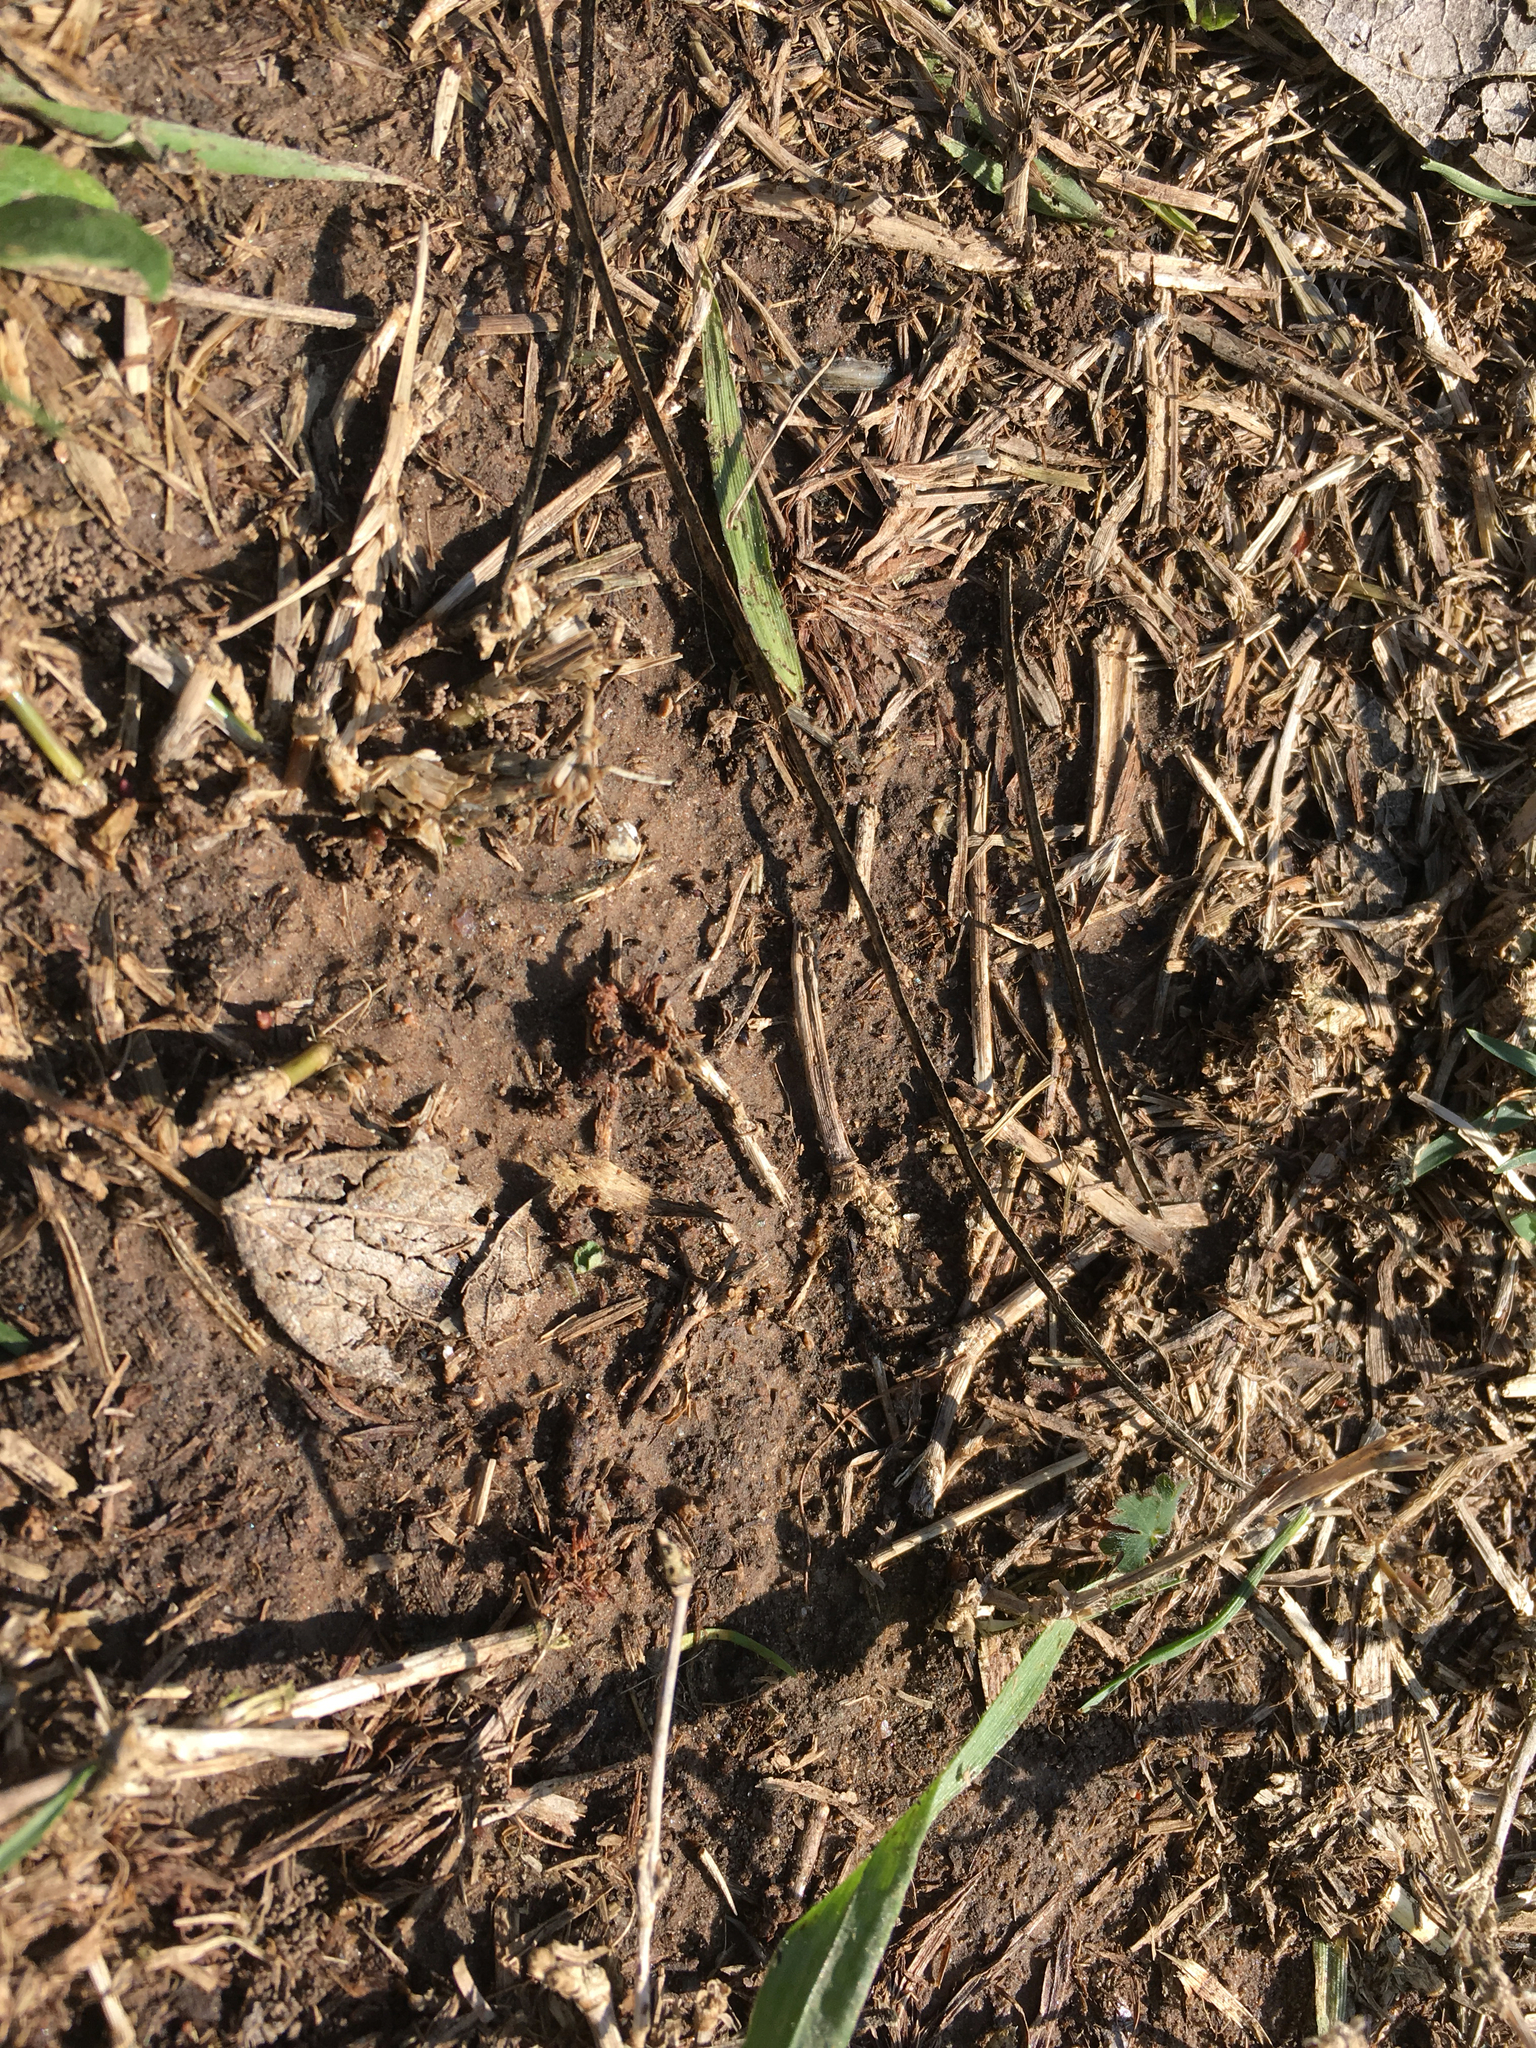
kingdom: Animalia
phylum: Arthropoda
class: Insecta
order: Hymenoptera
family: Formicidae
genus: Atta
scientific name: Atta texana
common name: Texas leafcutting ant
